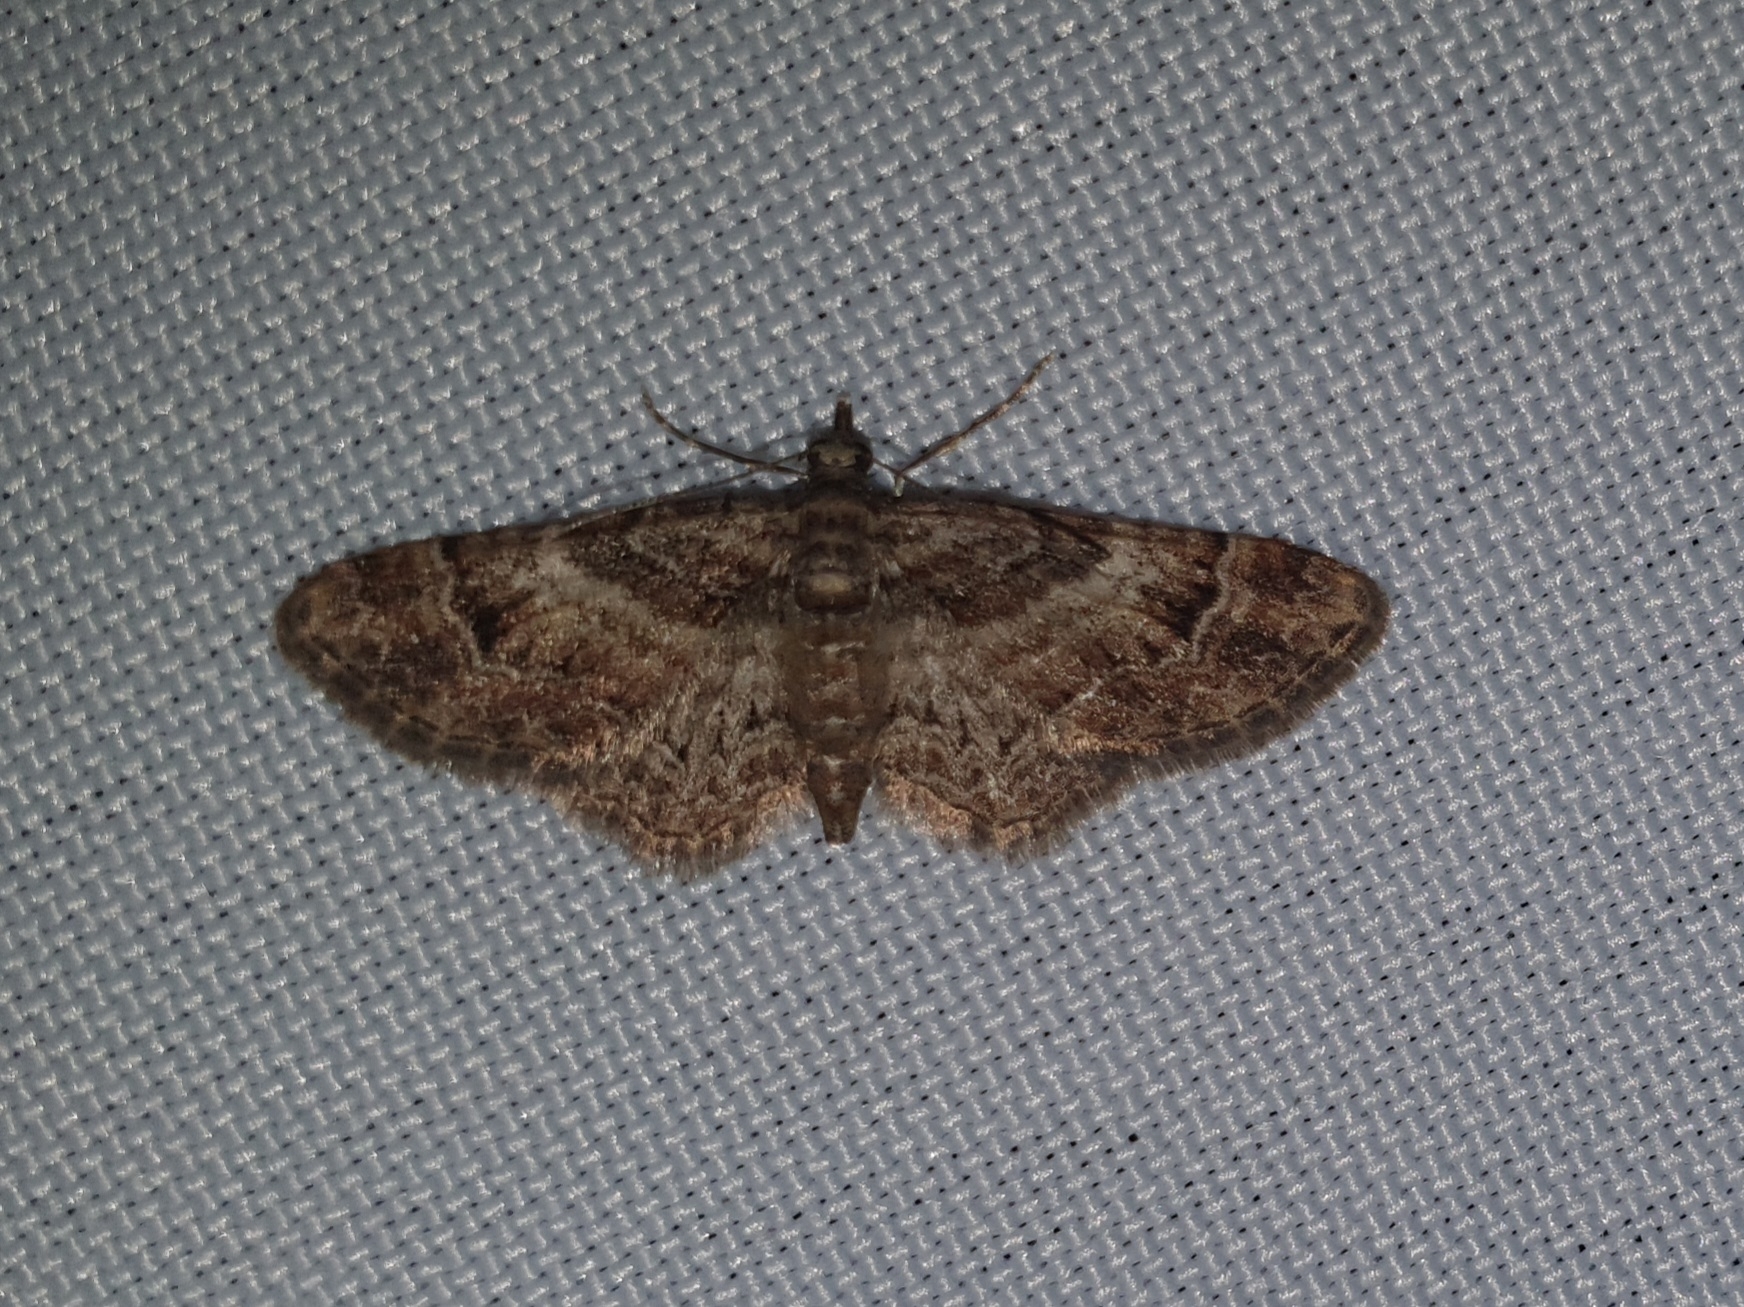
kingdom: Animalia
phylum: Arthropoda
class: Insecta
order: Lepidoptera
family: Geometridae
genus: Gymnoscelis
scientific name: Gymnoscelis rufifasciata
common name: Double-striped pug
